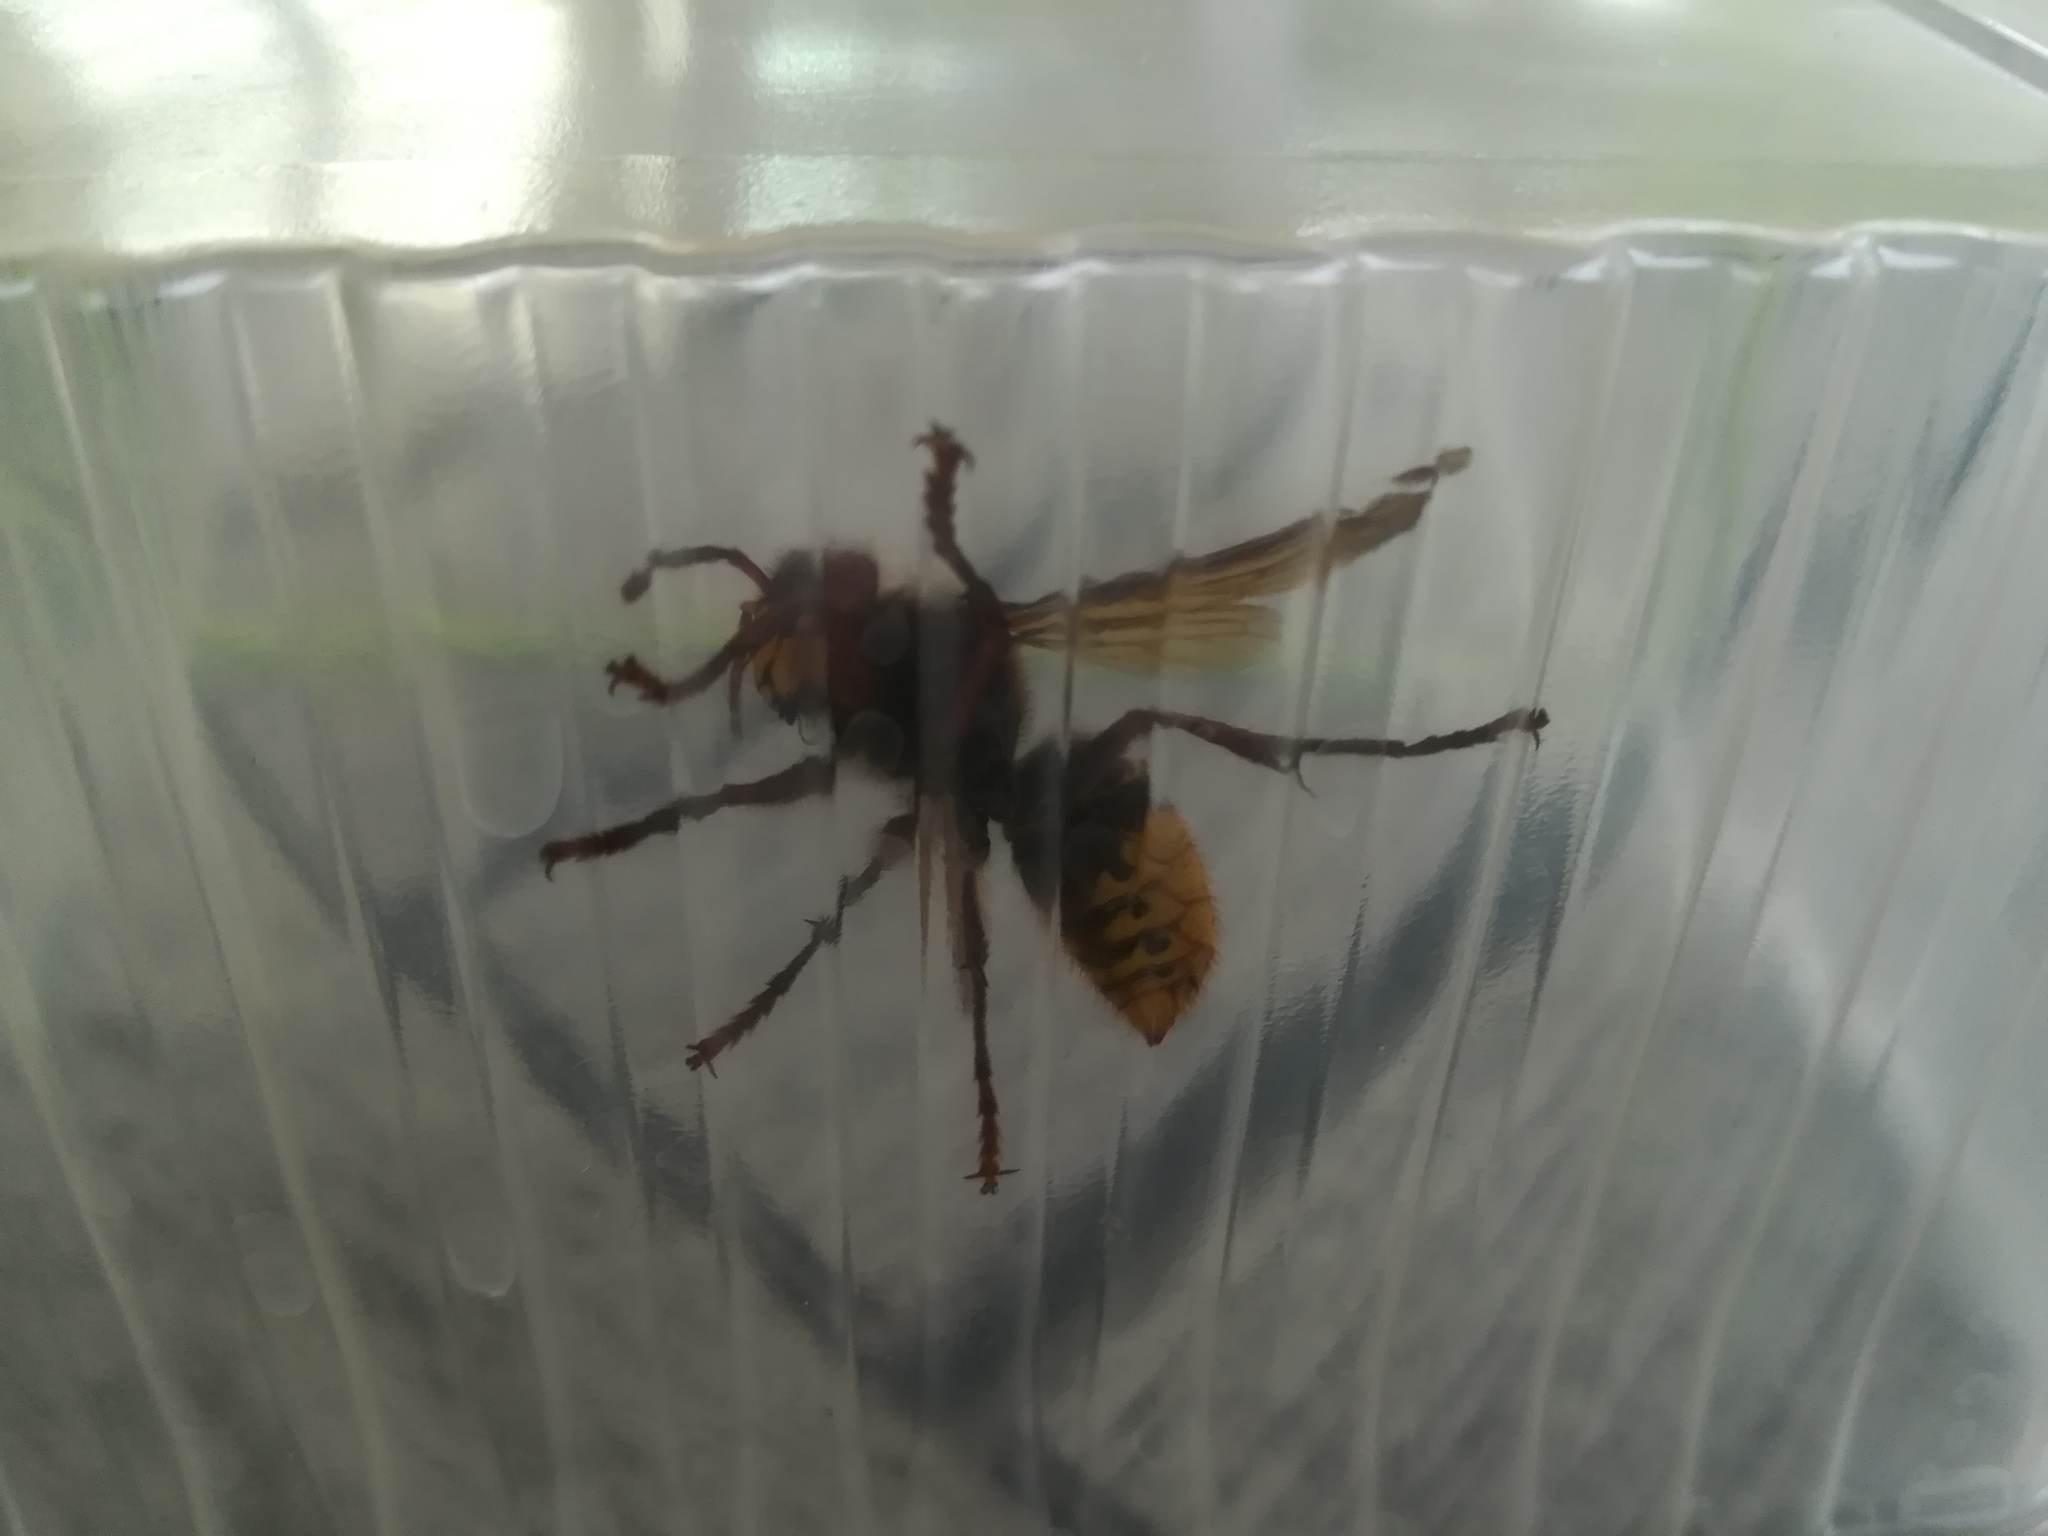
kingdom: Animalia
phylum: Arthropoda
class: Insecta
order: Hymenoptera
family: Vespidae
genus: Vespa
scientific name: Vespa crabro
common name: Hornet
